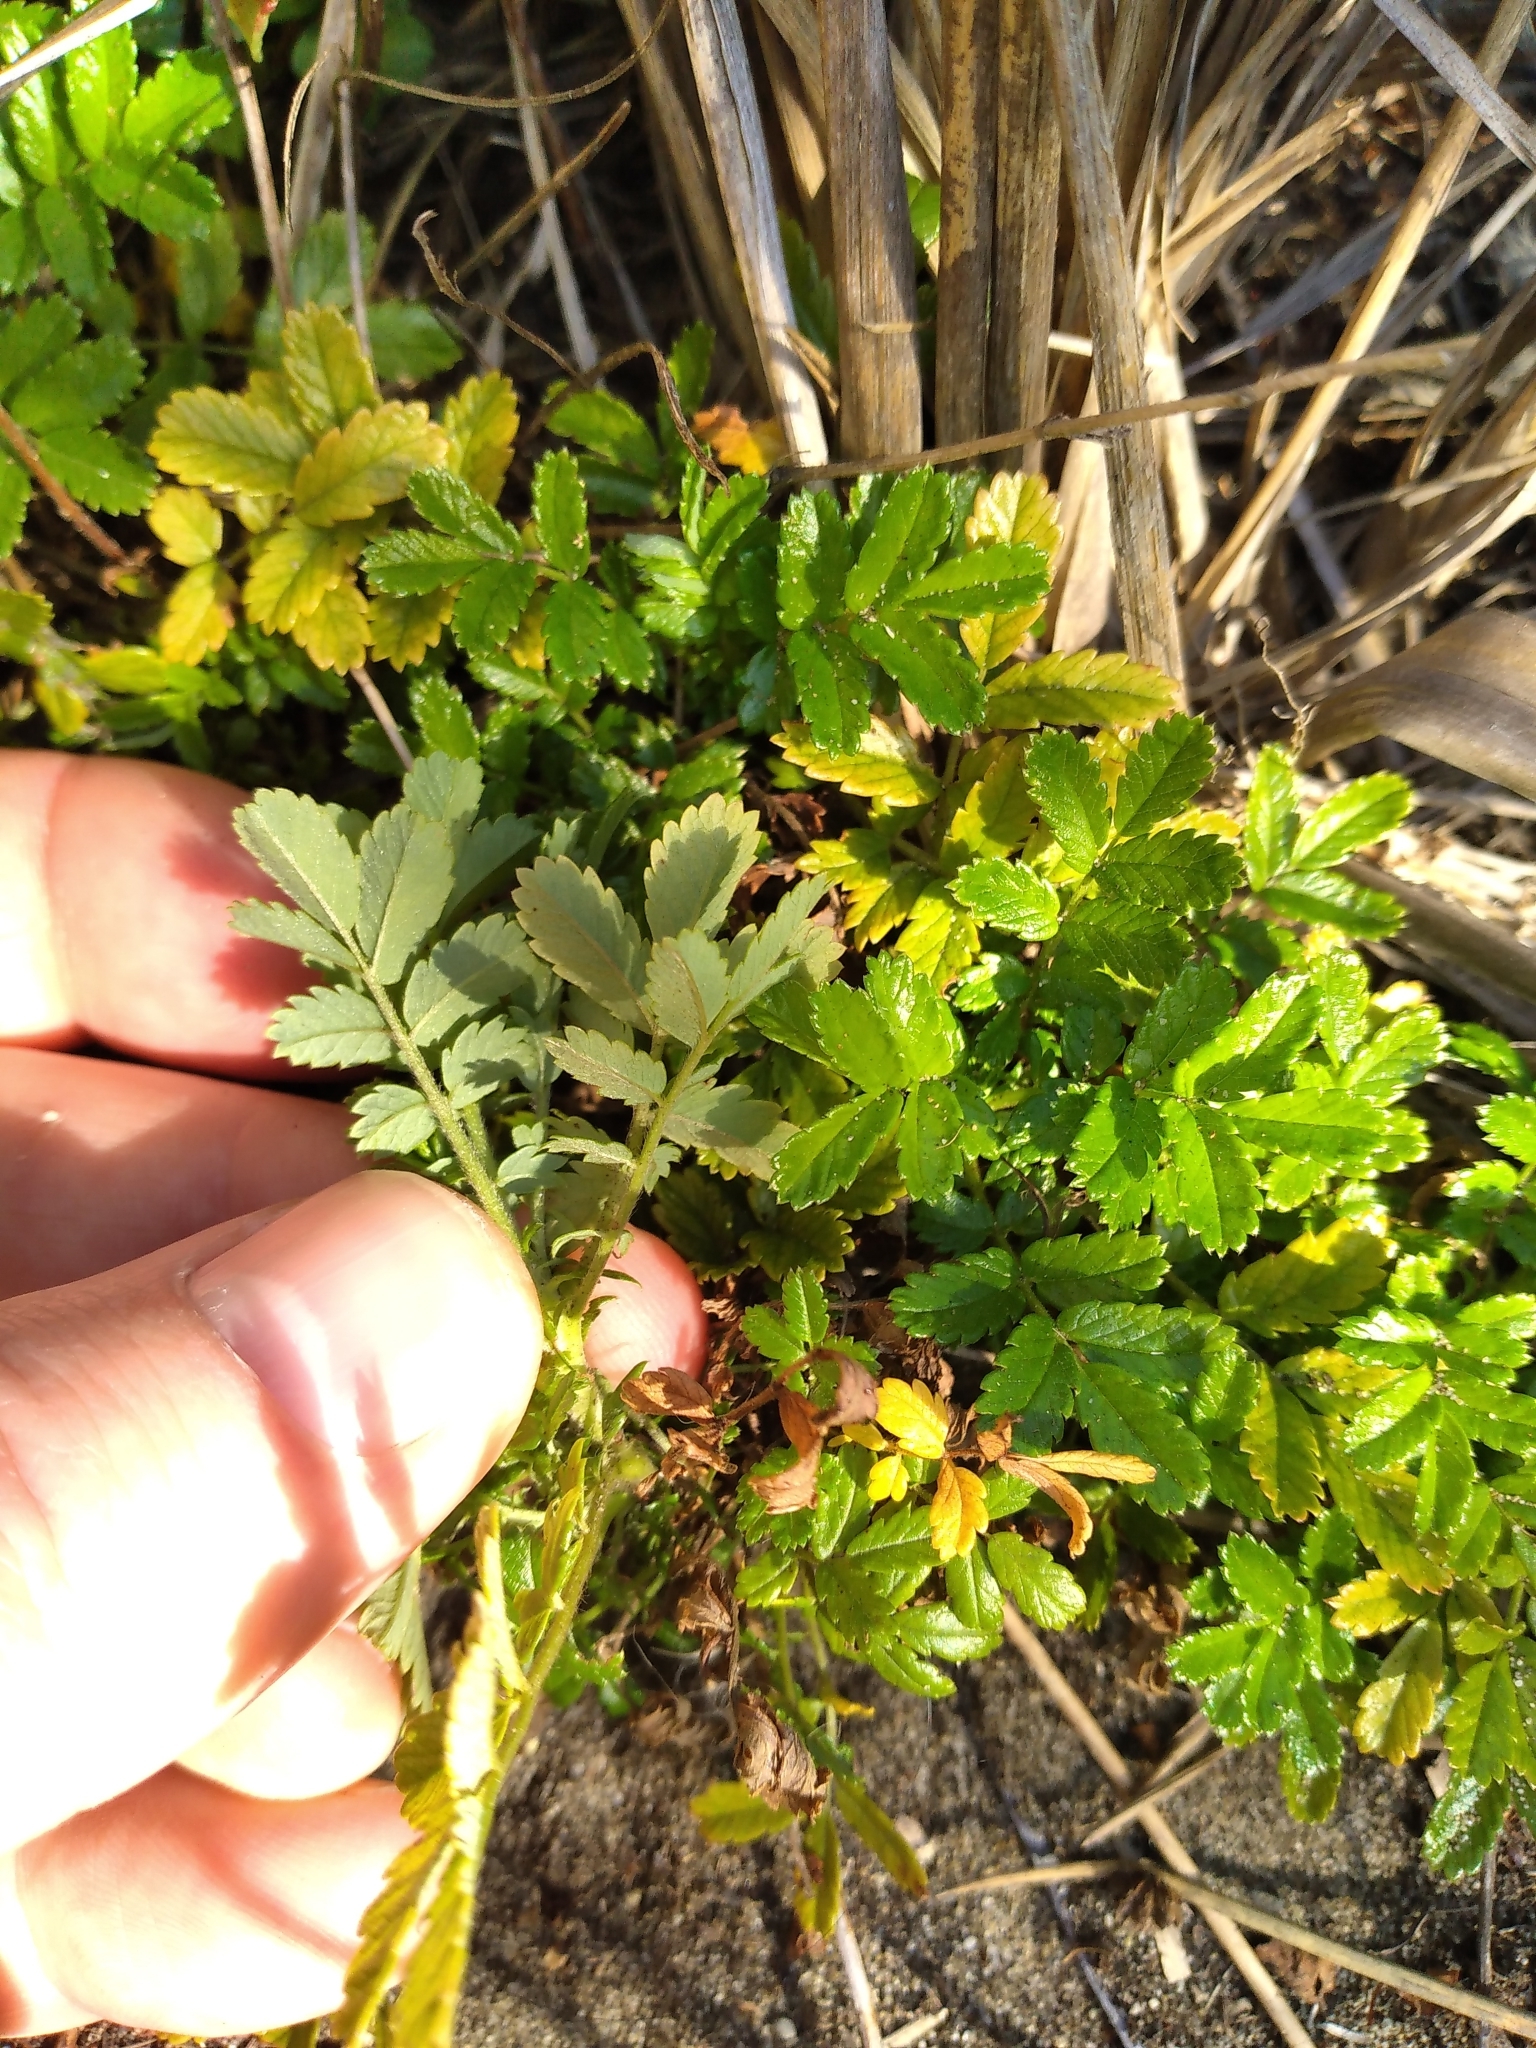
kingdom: Plantae
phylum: Tracheophyta
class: Magnoliopsida
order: Rosales
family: Rosaceae
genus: Acaena
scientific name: Acaena novae-zelandiae
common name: Pirri-pirri-bur
